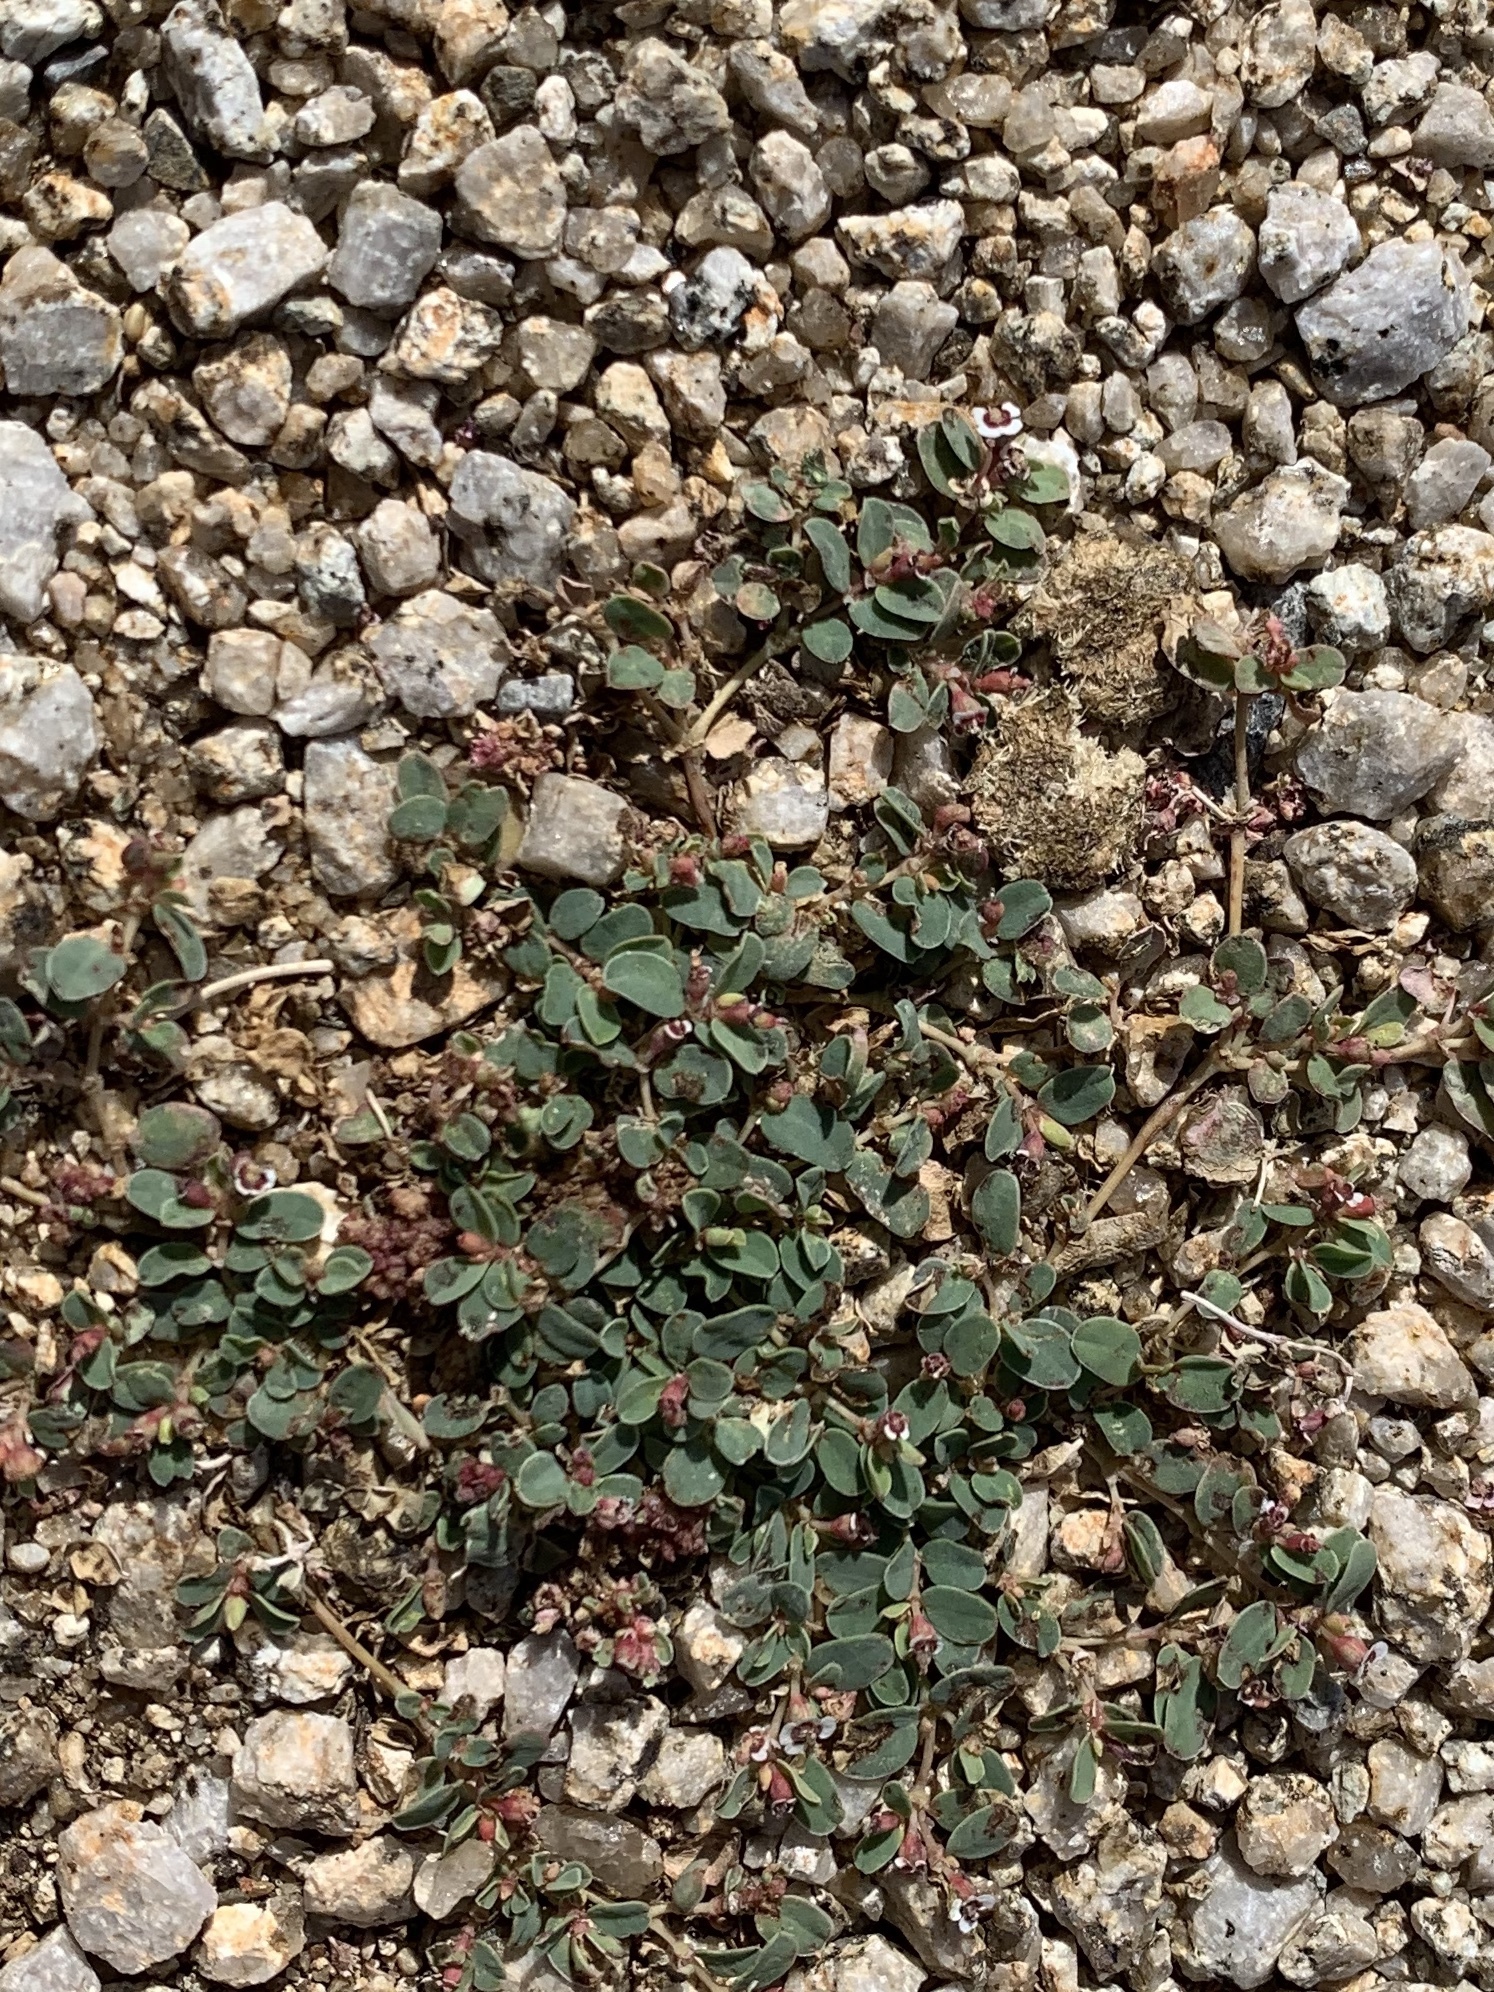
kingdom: Plantae
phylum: Tracheophyta
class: Magnoliopsida
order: Malpighiales
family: Euphorbiaceae
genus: Euphorbia
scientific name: Euphorbia albomarginata
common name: Whitemargin sandmat
